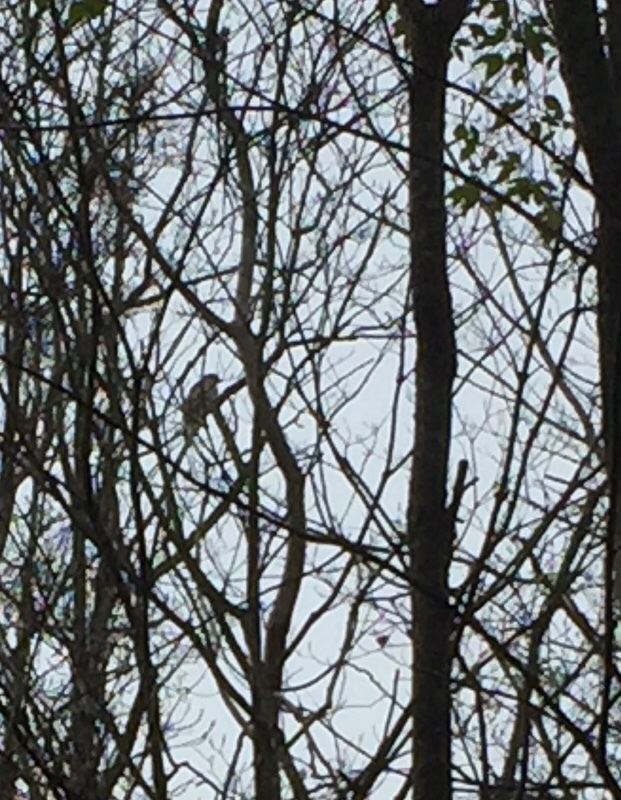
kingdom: Animalia
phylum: Chordata
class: Aves
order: Accipitriformes
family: Accipitridae
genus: Buteo
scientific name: Buteo lineatus
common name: Red-shouldered hawk
